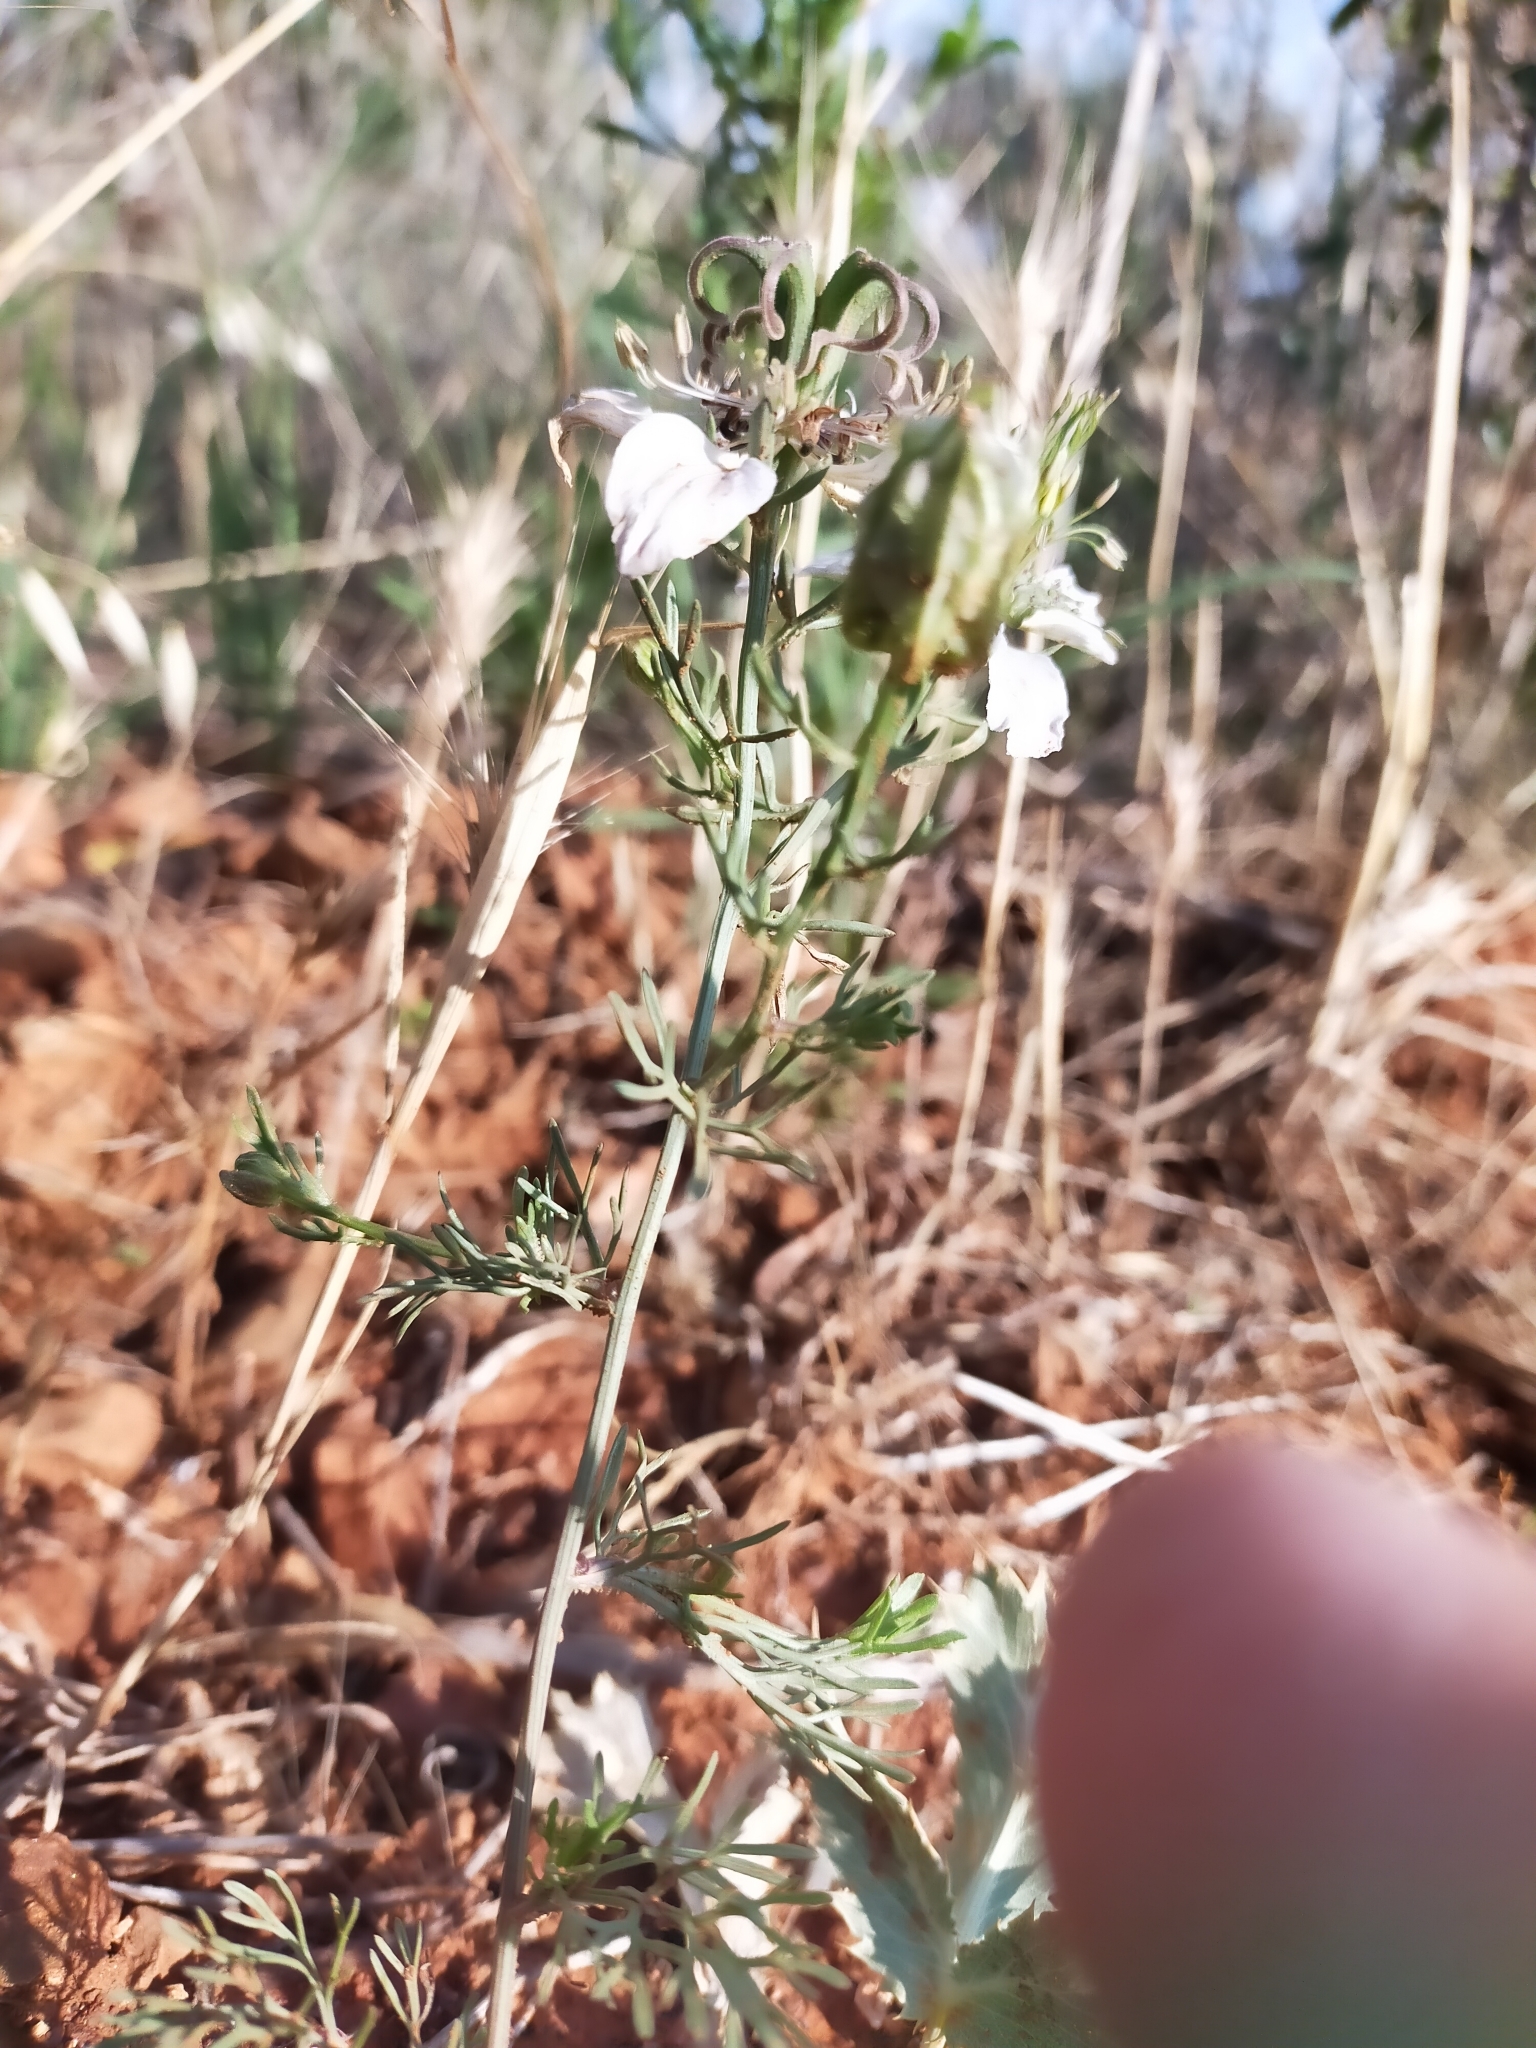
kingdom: Plantae
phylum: Tracheophyta
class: Magnoliopsida
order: Ranunculales
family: Ranunculaceae
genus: Nigella
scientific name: Nigella gallica
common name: Pale fennel-flower
